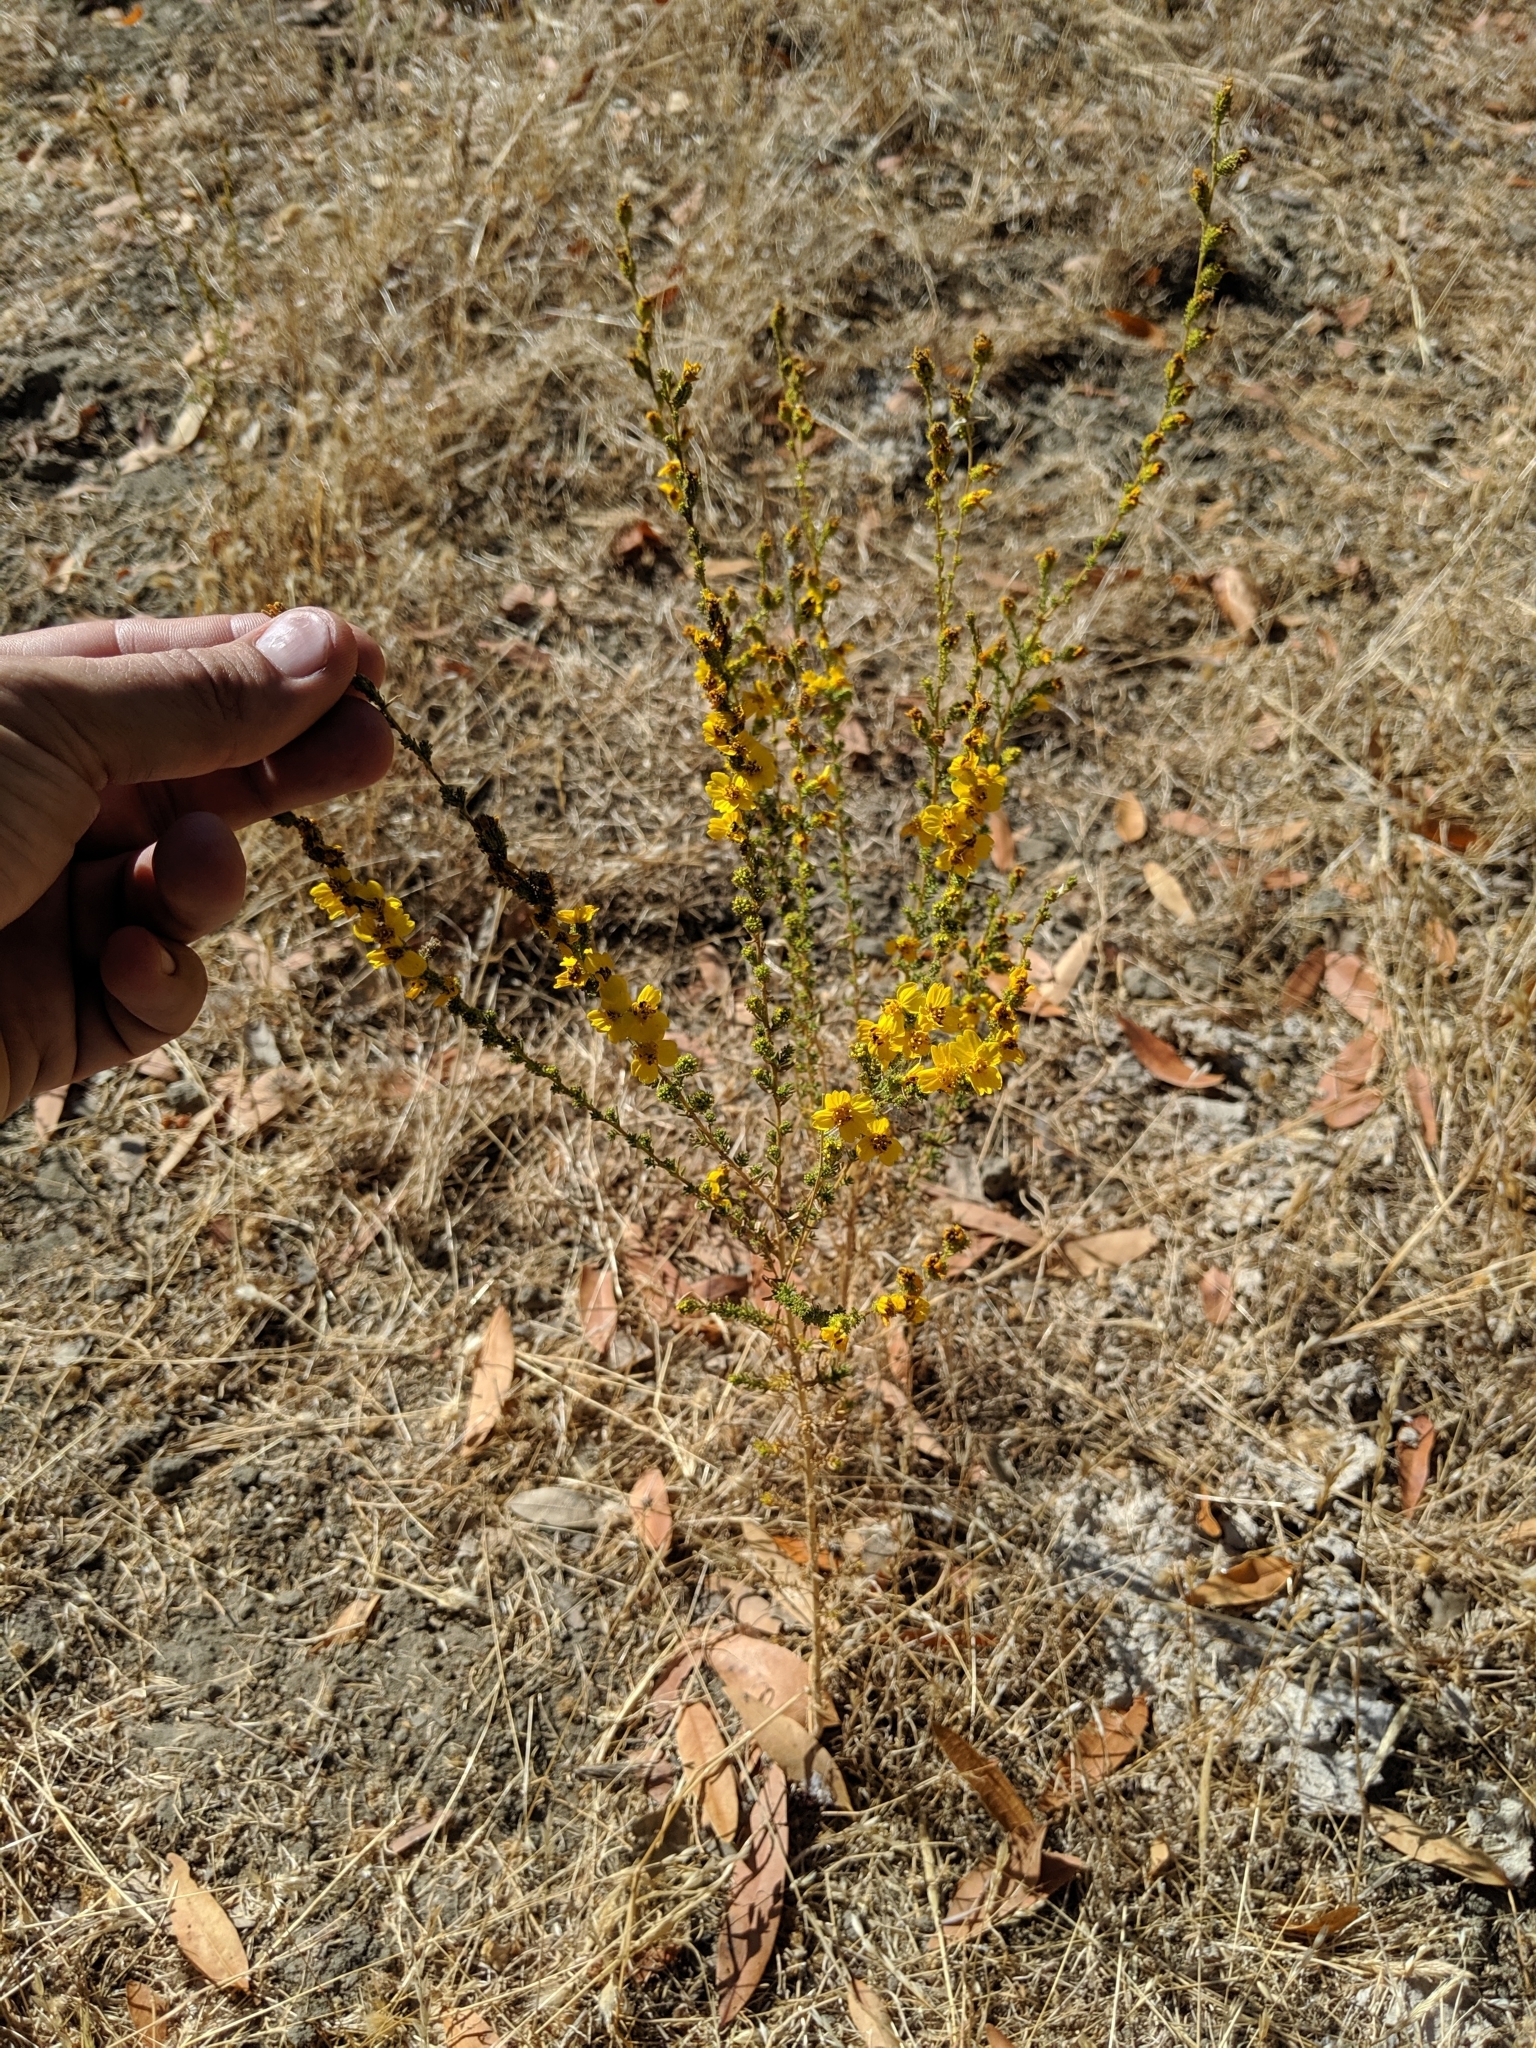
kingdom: Plantae
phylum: Tracheophyta
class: Magnoliopsida
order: Asterales
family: Asteraceae
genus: Holocarpha
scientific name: Holocarpha virgata
